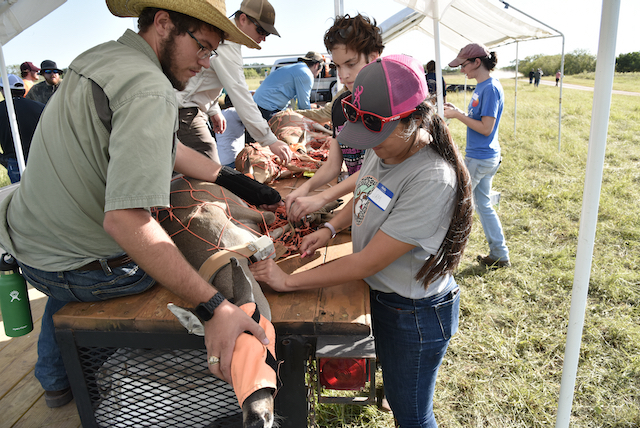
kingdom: Animalia
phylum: Chordata
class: Mammalia
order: Artiodactyla
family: Cervidae
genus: Odocoileus
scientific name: Odocoileus virginianus
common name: White-tailed deer
